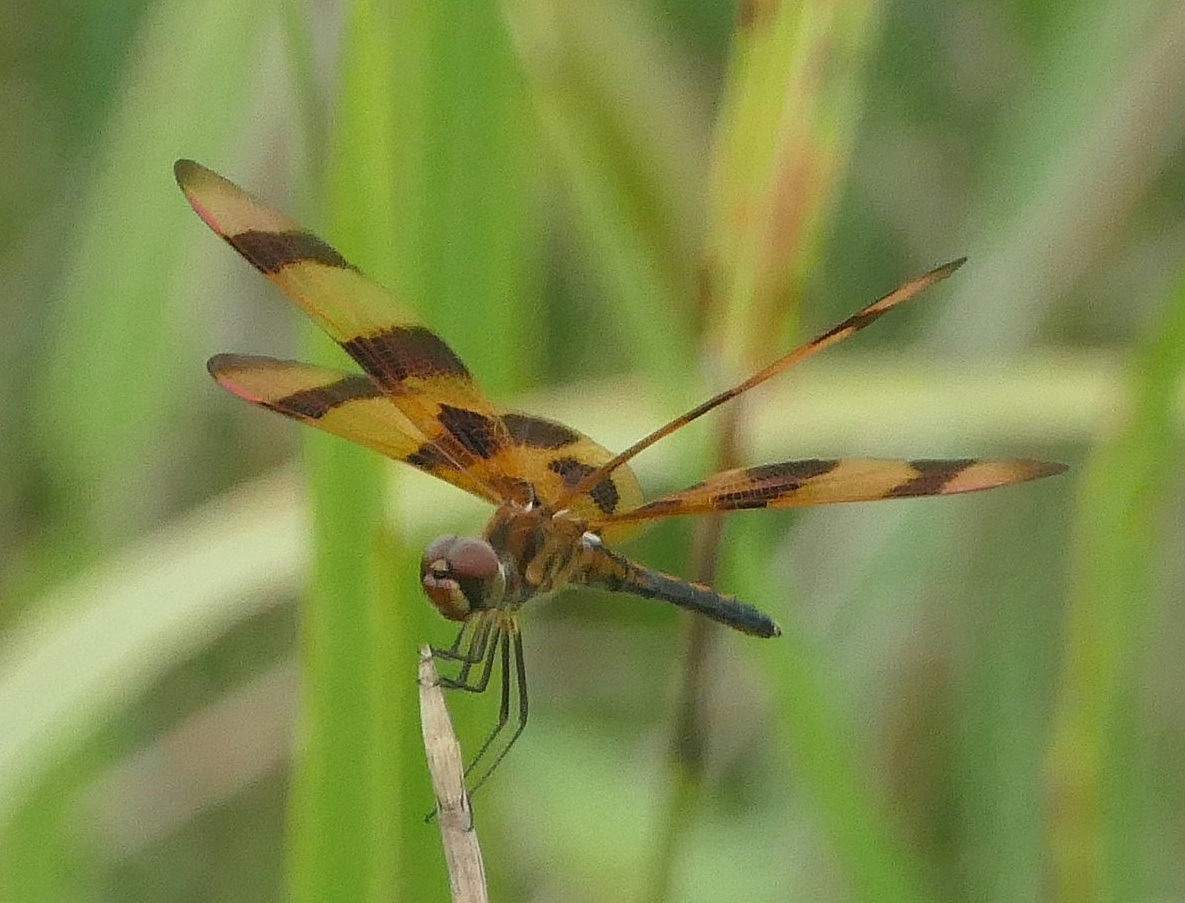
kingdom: Animalia
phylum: Arthropoda
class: Insecta
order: Odonata
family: Libellulidae
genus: Celithemis
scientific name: Celithemis eponina
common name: Halloween pennant
